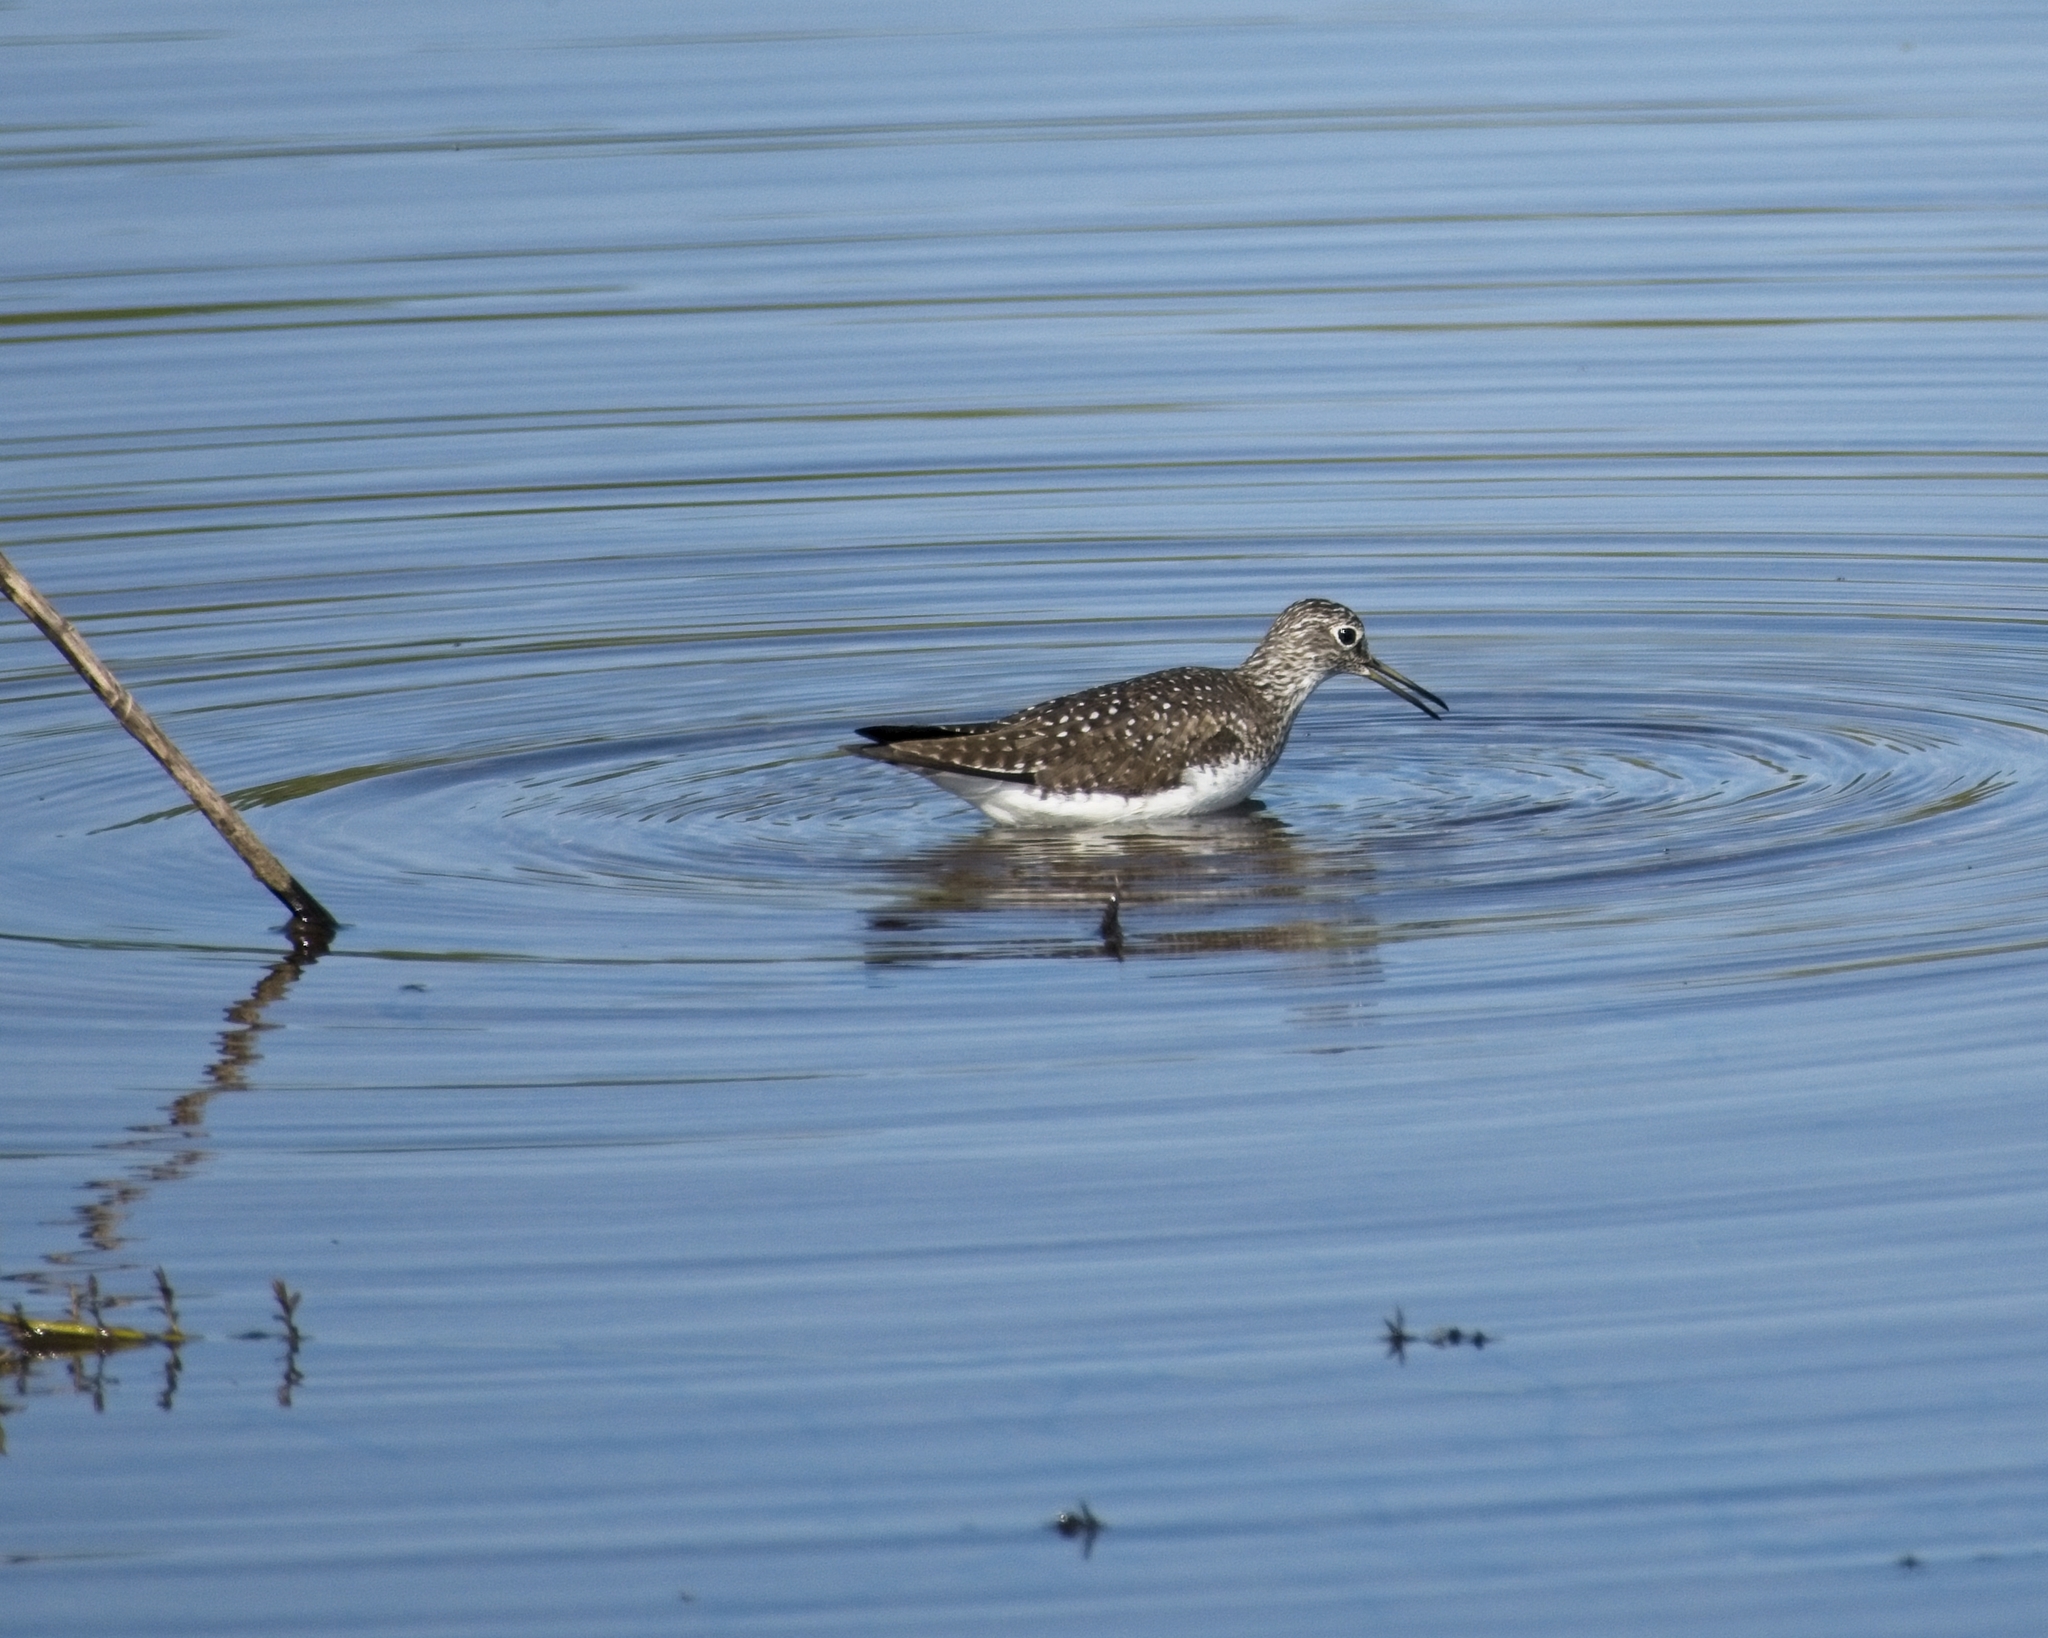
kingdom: Animalia
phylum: Chordata
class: Aves
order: Charadriiformes
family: Scolopacidae
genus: Tringa
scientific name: Tringa solitaria
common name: Solitary sandpiper
